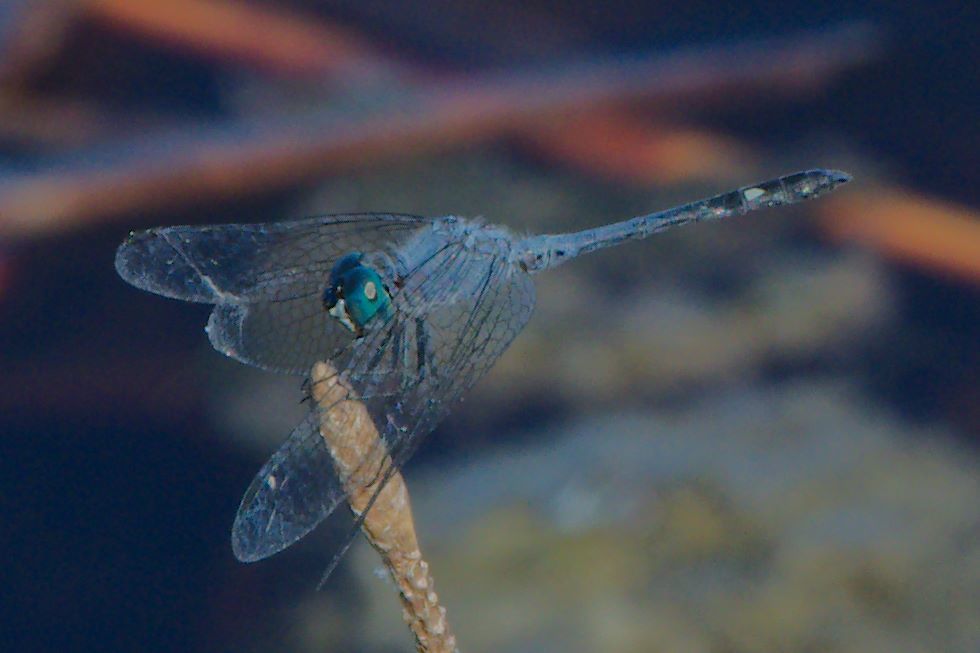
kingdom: Animalia
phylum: Arthropoda
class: Insecta
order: Odonata
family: Libellulidae
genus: Micrathyria
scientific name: Micrathyria aequalis
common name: Spot-tailed dasher
